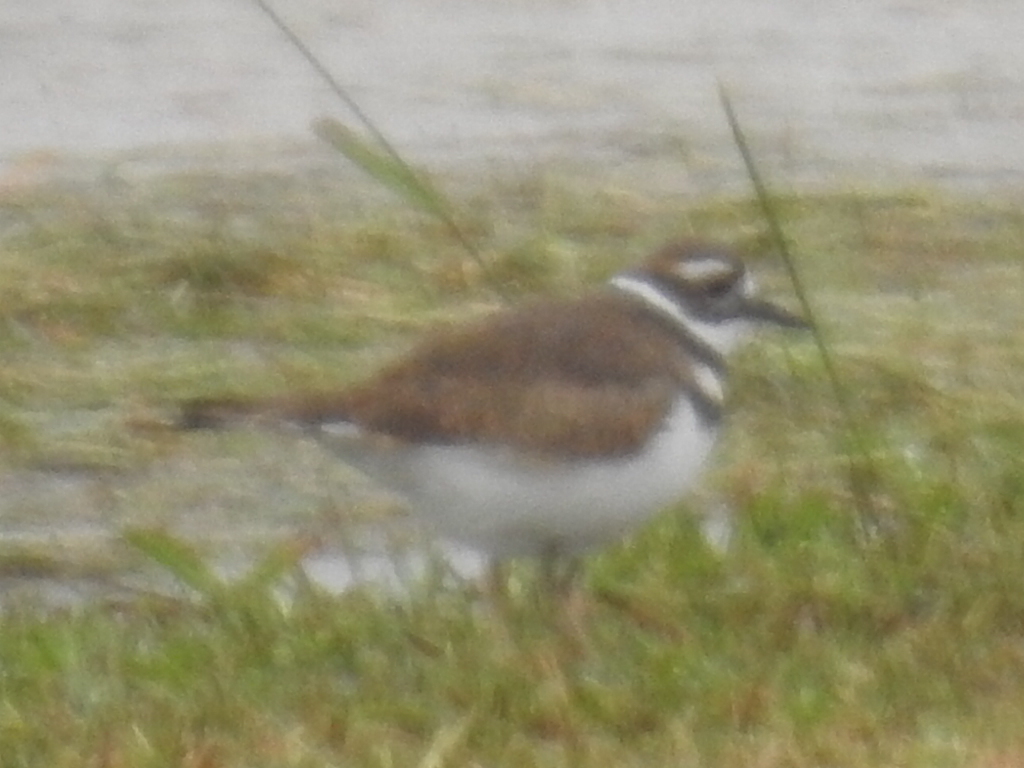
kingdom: Animalia
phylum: Chordata
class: Aves
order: Charadriiformes
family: Charadriidae
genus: Charadrius
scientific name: Charadrius vociferus
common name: Killdeer
